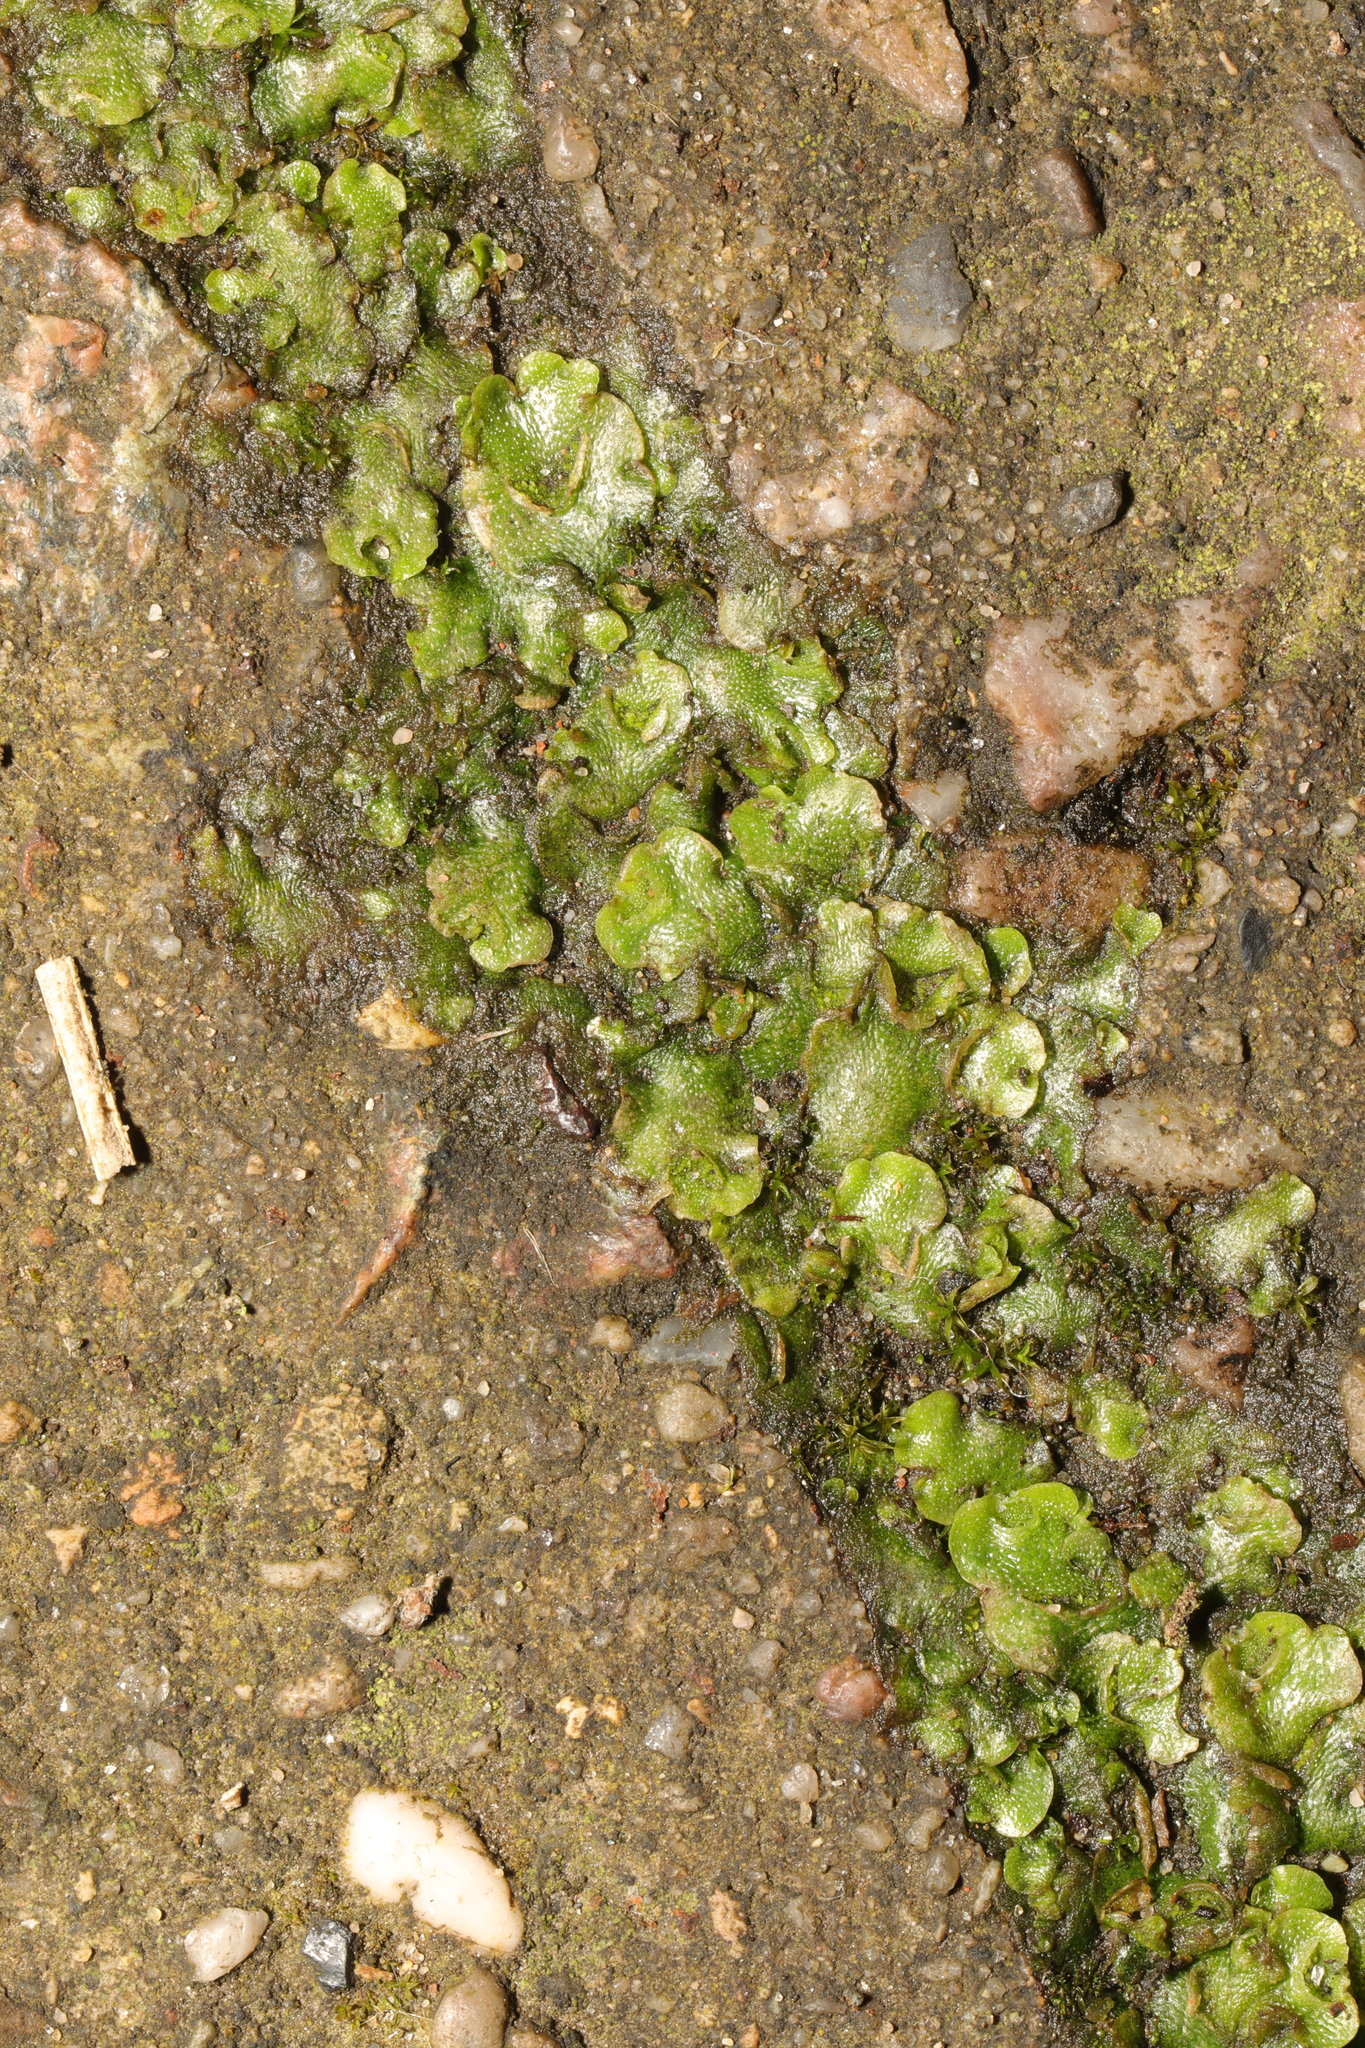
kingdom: Plantae
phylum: Marchantiophyta
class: Marchantiopsida
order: Lunulariales
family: Lunulariaceae
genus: Lunularia
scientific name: Lunularia cruciata
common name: Crescent-cup liverwort
